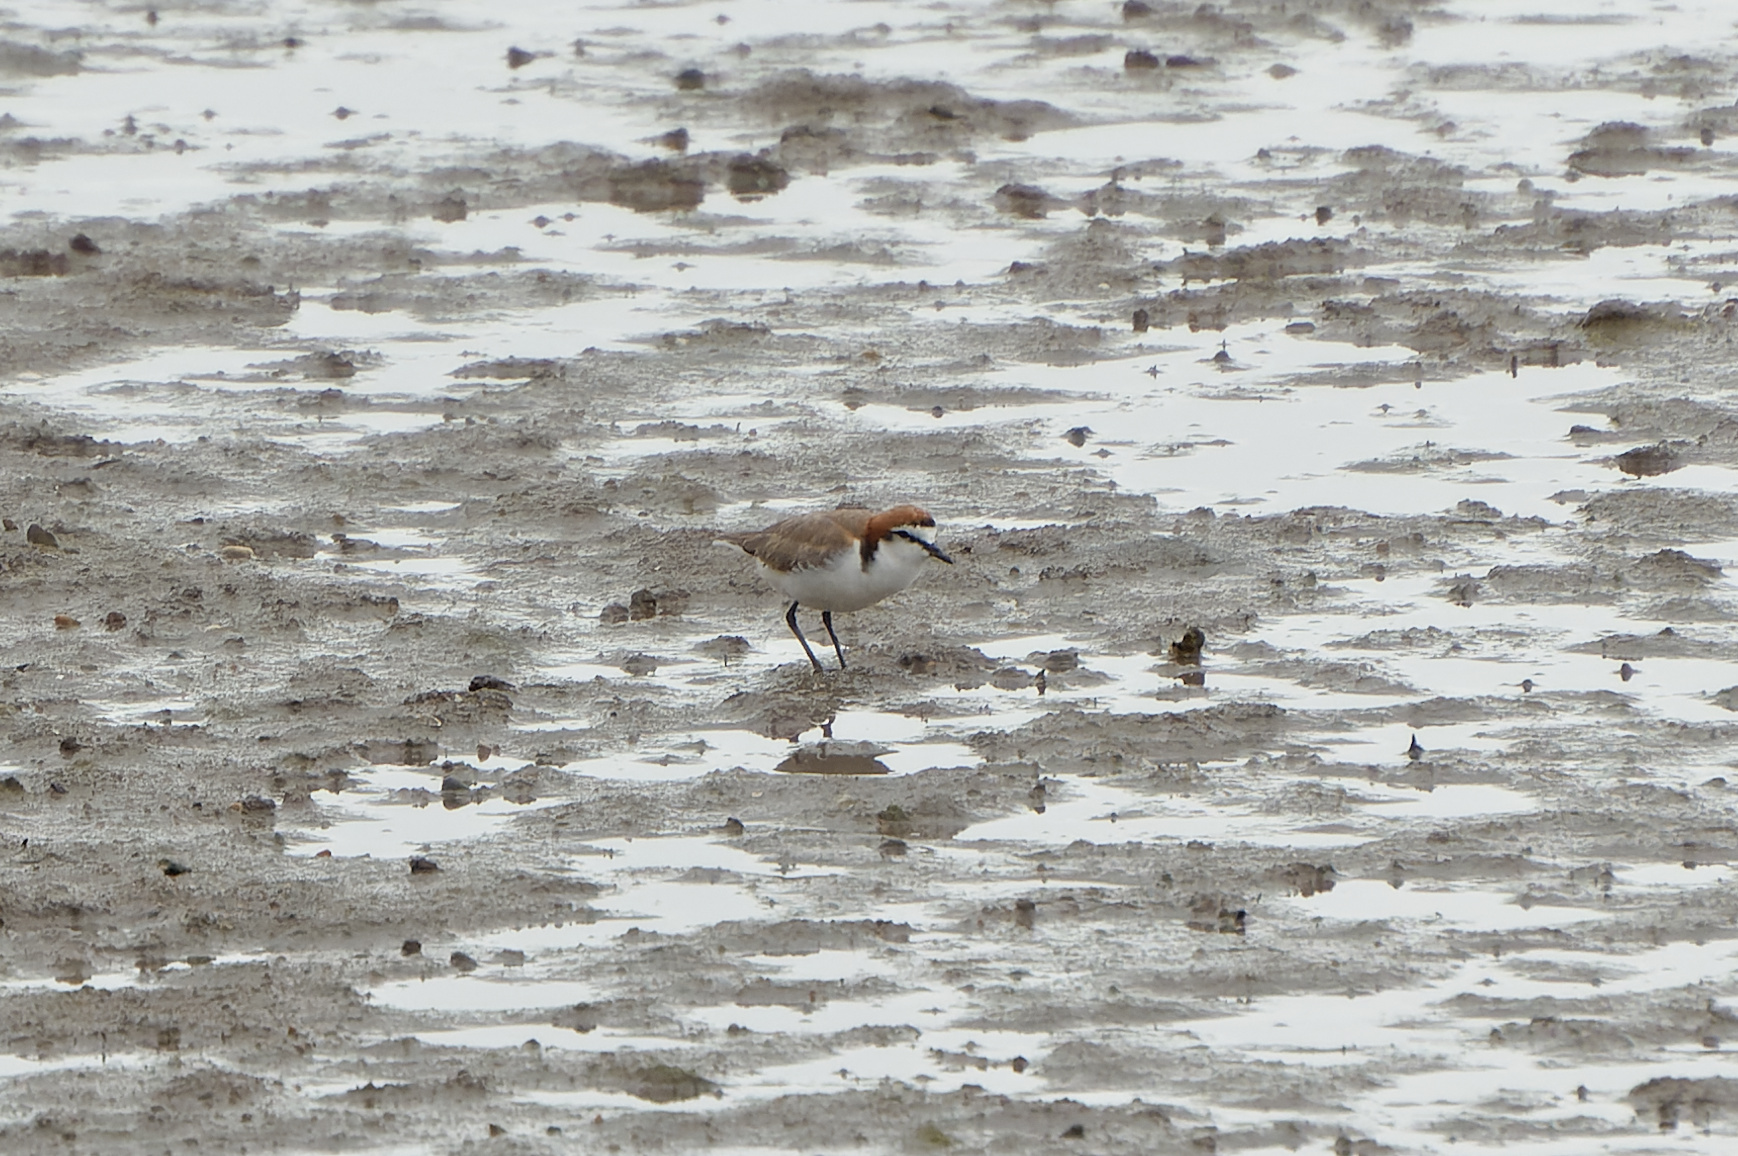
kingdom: Animalia
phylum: Chordata
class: Aves
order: Charadriiformes
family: Charadriidae
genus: Anarhynchus
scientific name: Anarhynchus
